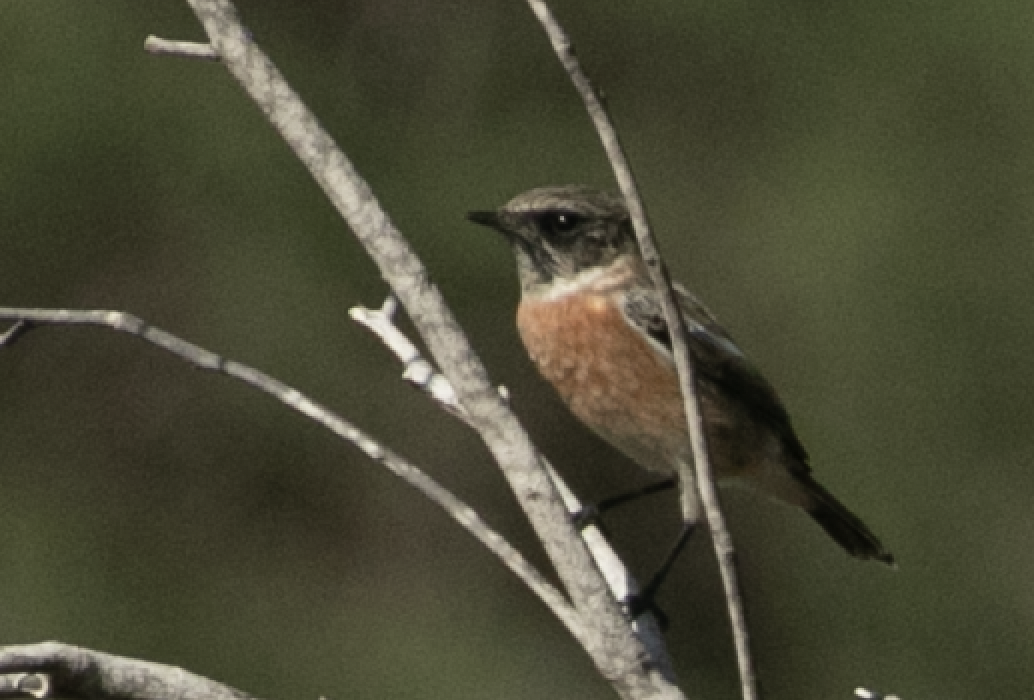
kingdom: Animalia
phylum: Chordata
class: Aves
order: Passeriformes
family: Muscicapidae
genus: Saxicola
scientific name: Saxicola rubicola
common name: European stonechat
